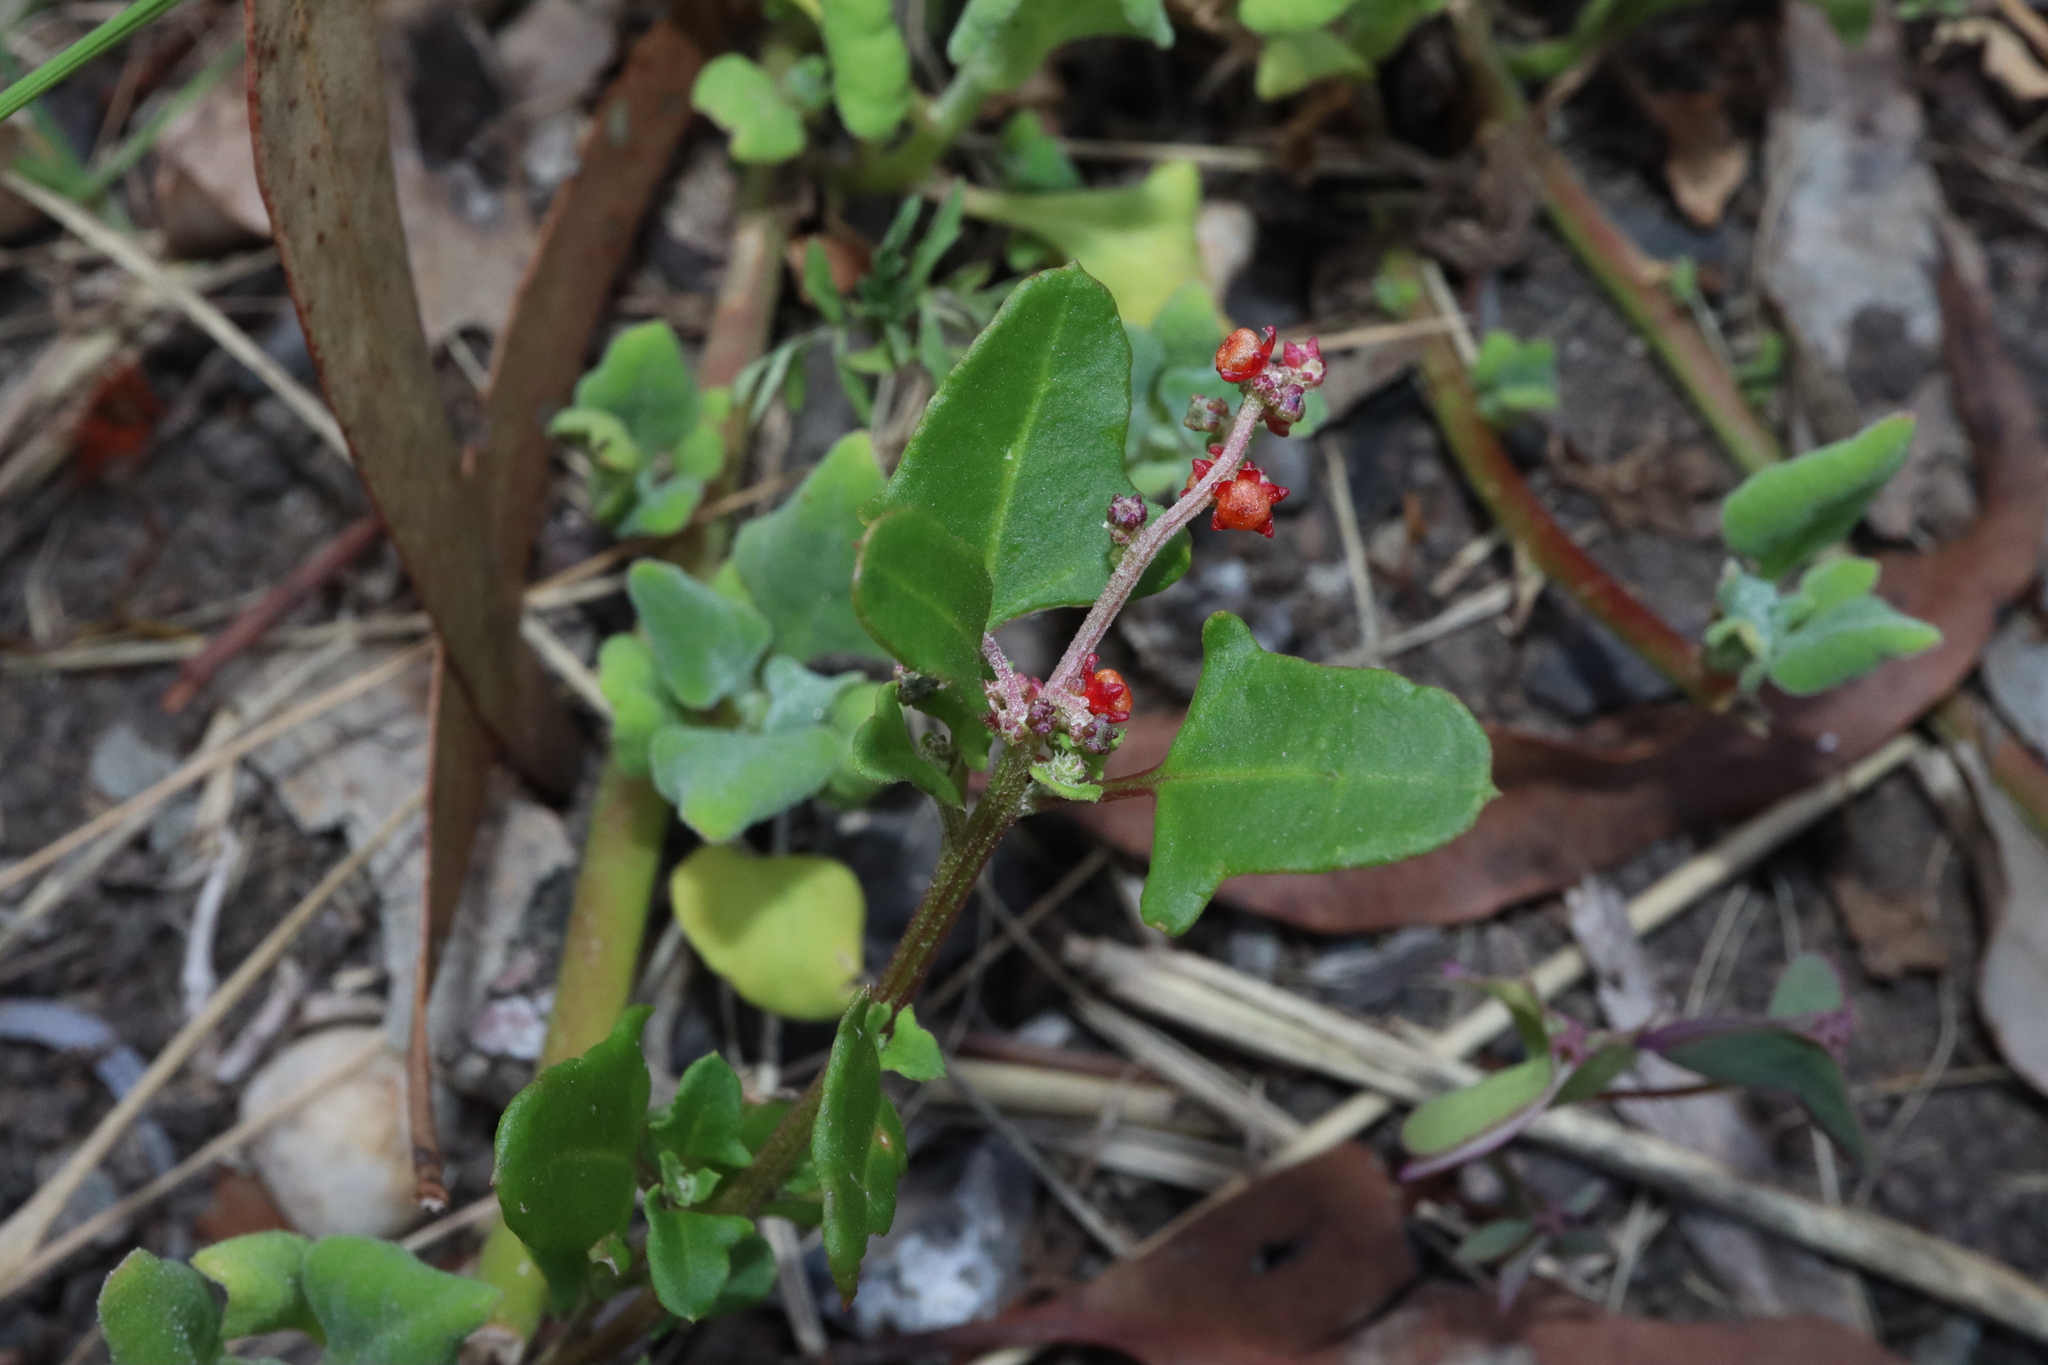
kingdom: Plantae
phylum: Tracheophyta
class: Magnoliopsida
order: Caryophyllales
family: Amaranthaceae
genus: Chenopodium
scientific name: Chenopodium robertianum
